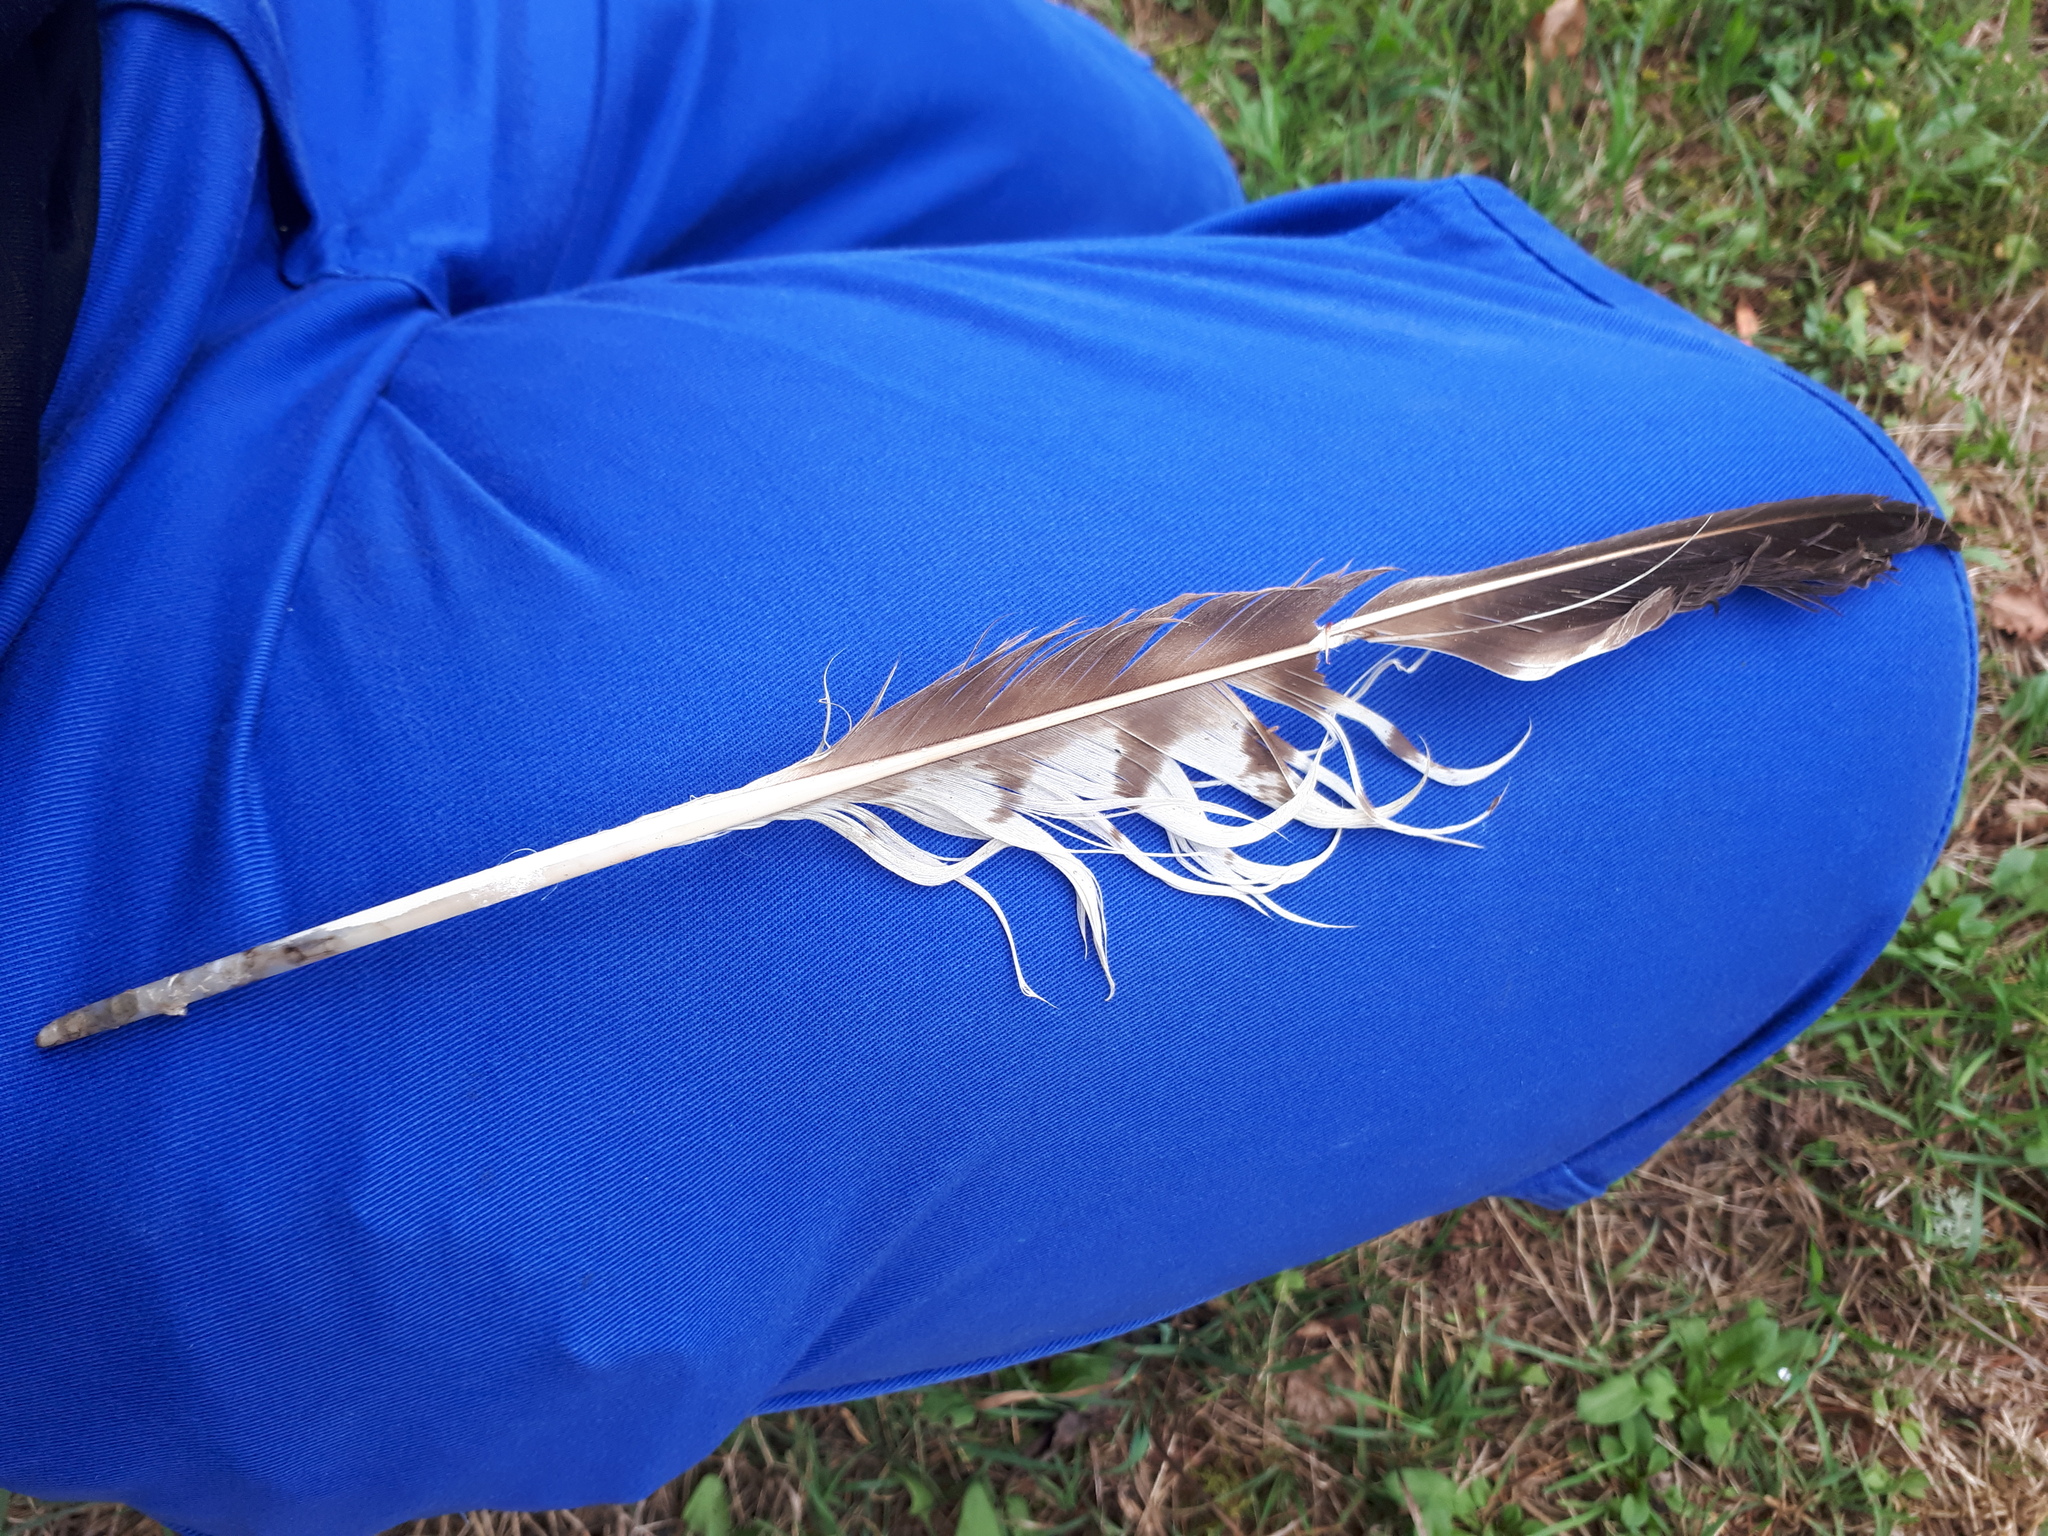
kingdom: Animalia
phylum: Chordata
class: Aves
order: Accipitriformes
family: Accipitridae
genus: Buteo
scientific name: Buteo buteo
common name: Common buzzard
